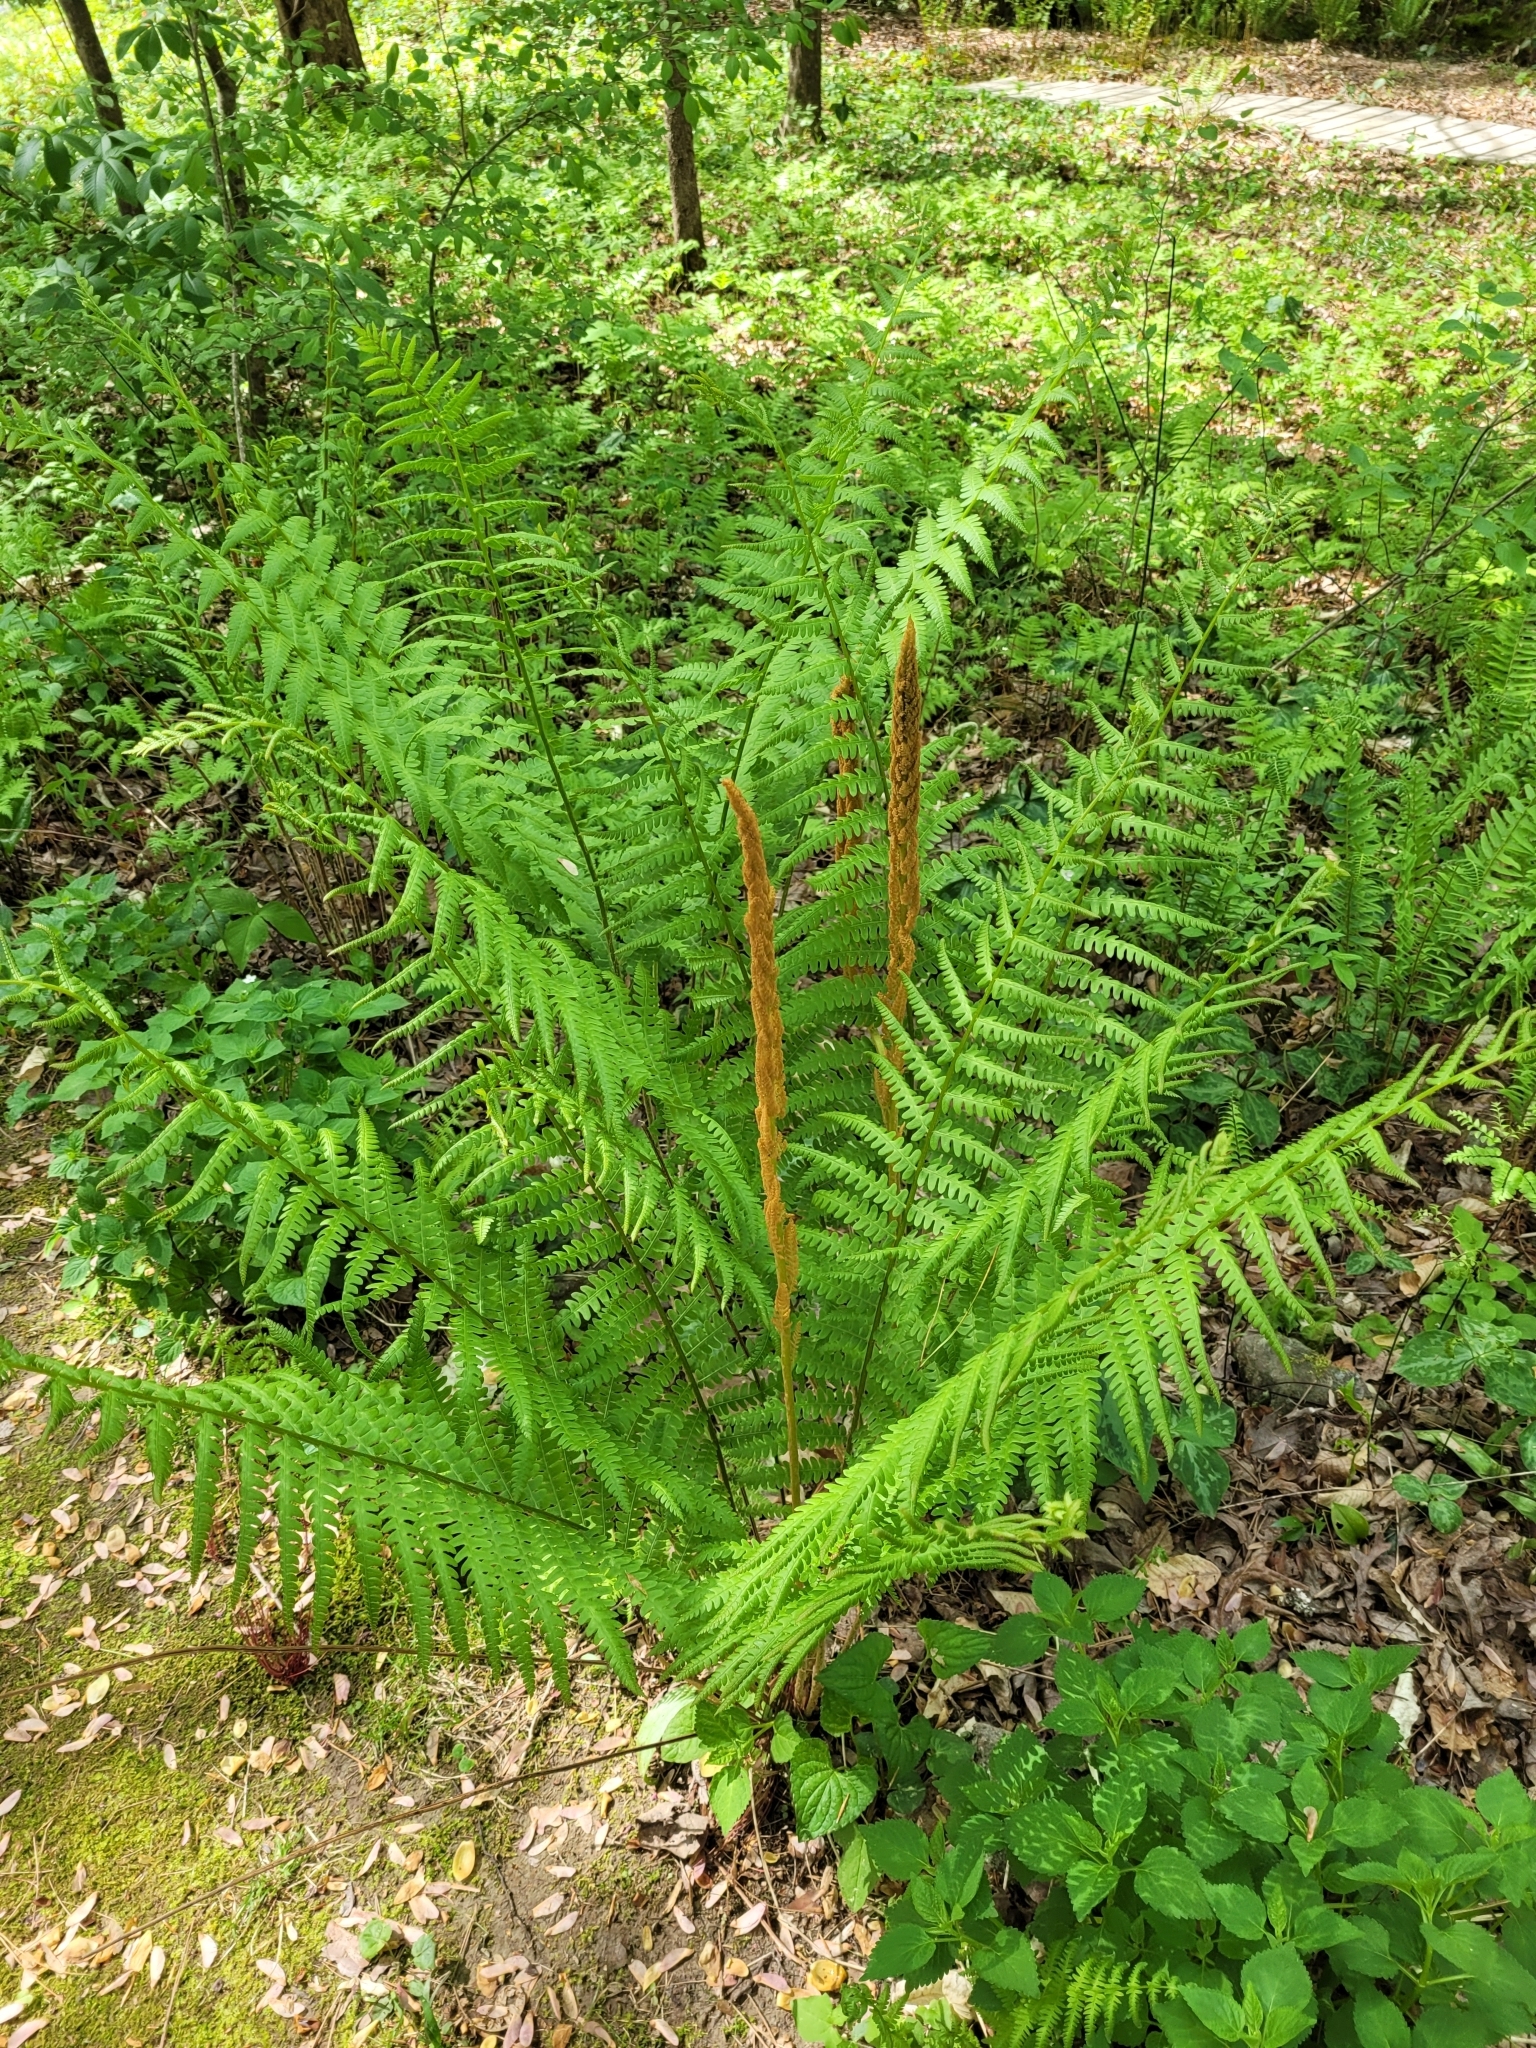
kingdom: Plantae
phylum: Tracheophyta
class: Polypodiopsida
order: Osmundales
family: Osmundaceae
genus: Osmundastrum
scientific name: Osmundastrum cinnamomeum
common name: Cinnamon fern
